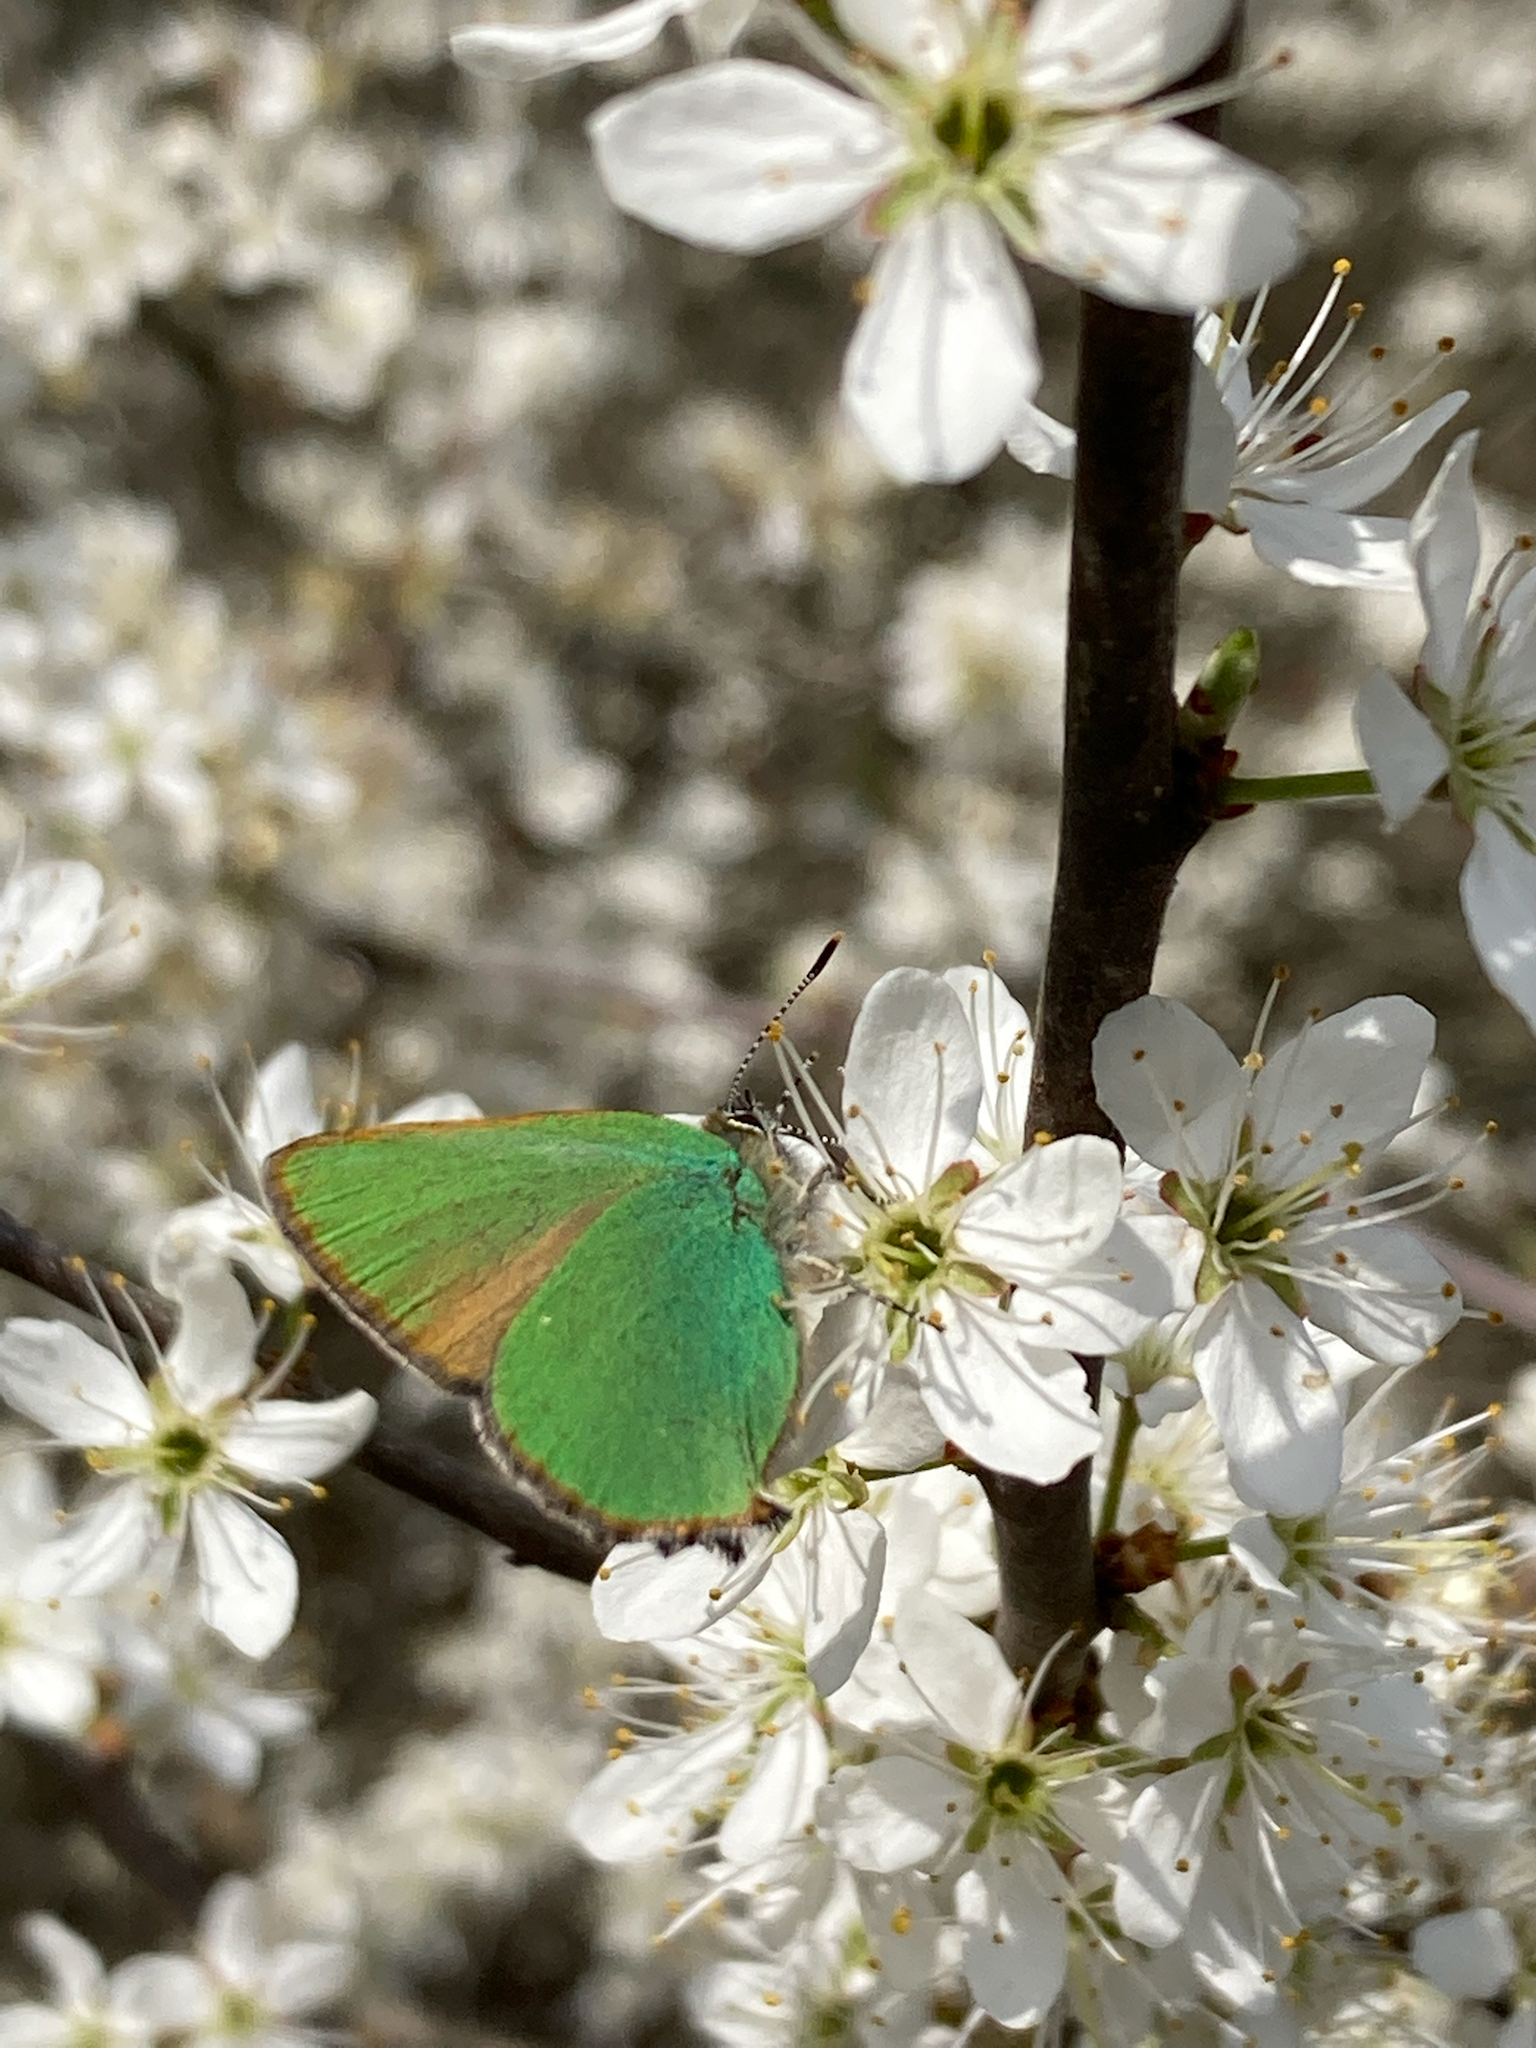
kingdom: Animalia
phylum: Arthropoda
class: Insecta
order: Lepidoptera
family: Lycaenidae
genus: Callophrys
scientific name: Callophrys rubi
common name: Green hairstreak
